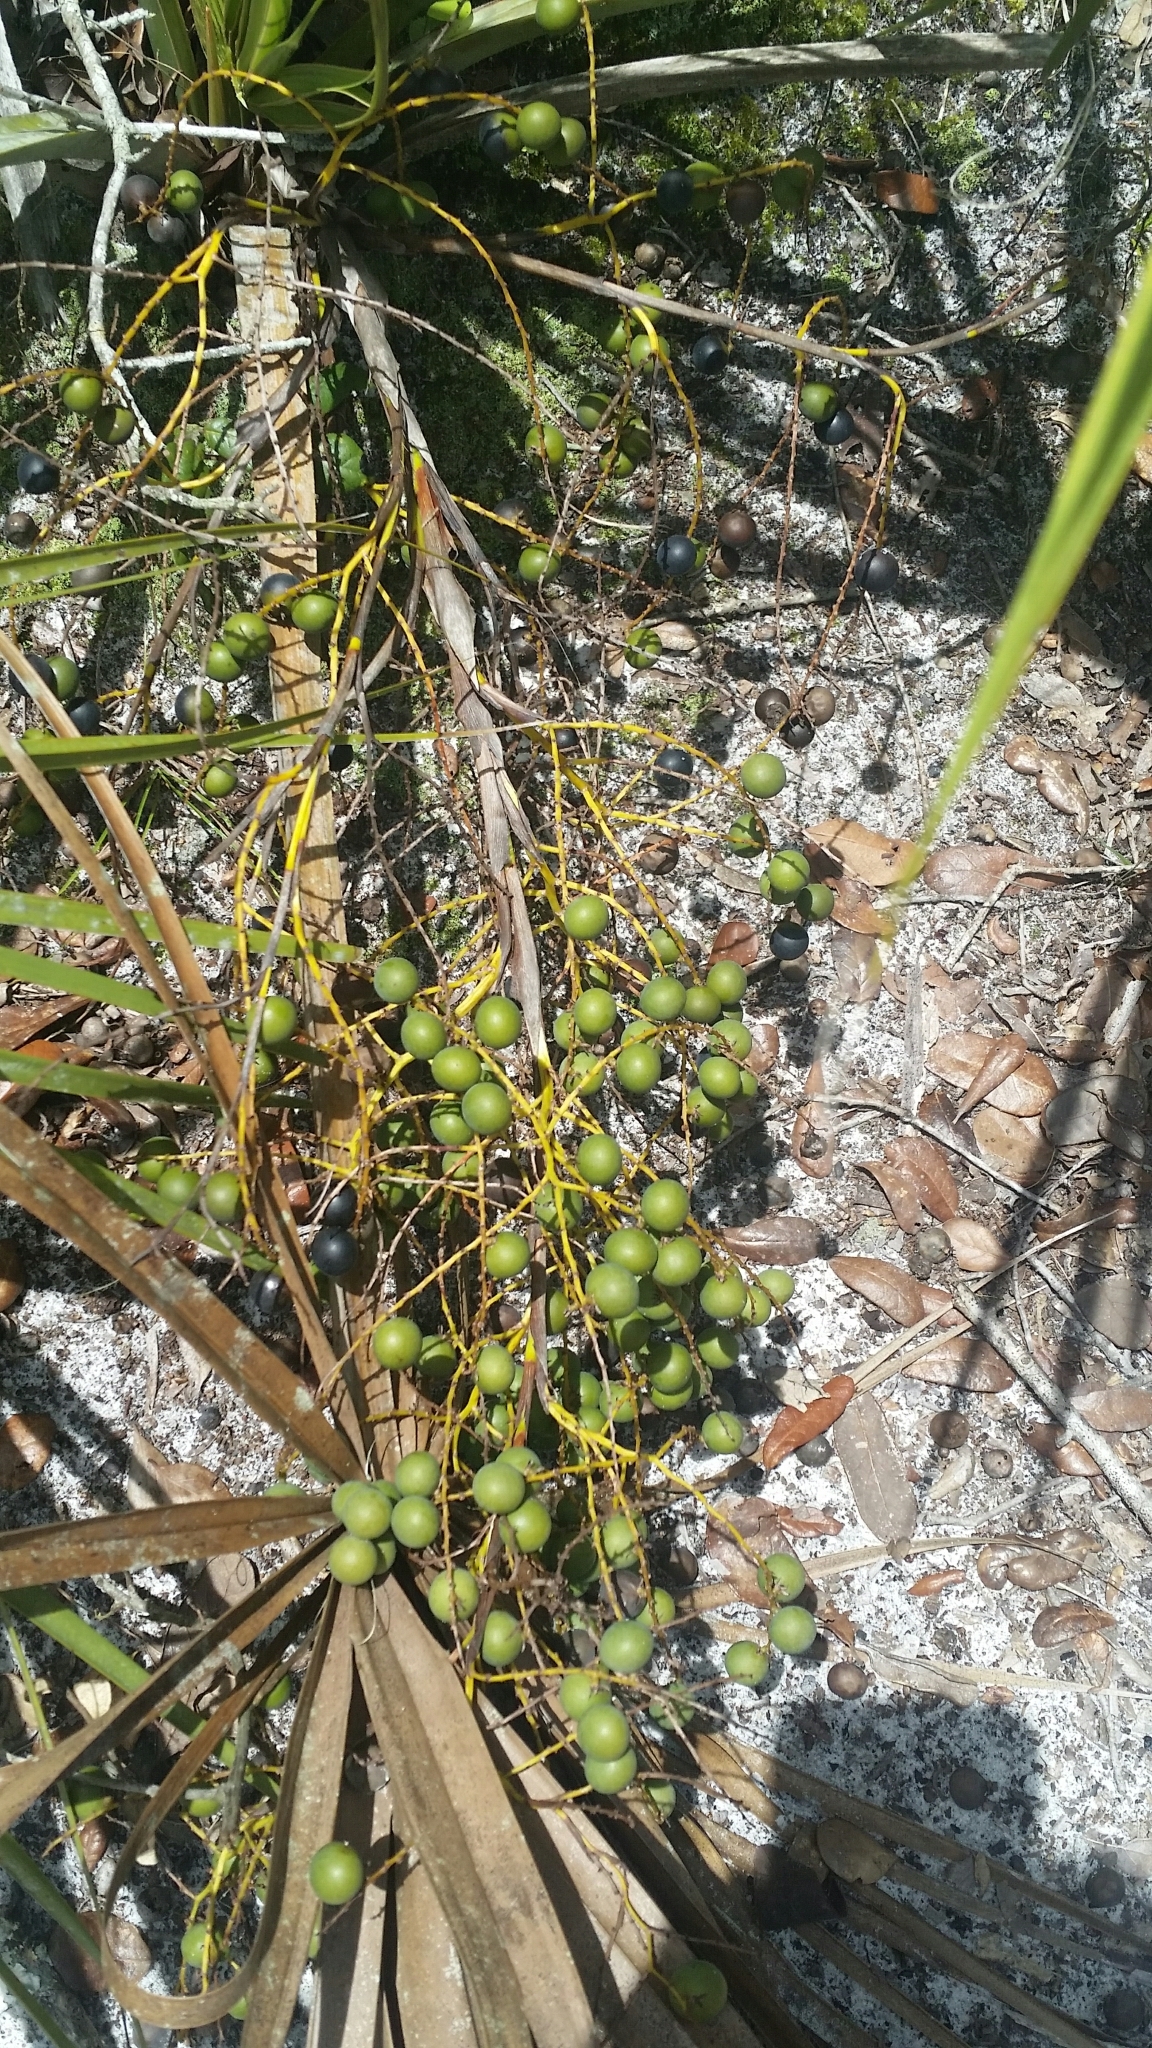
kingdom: Plantae
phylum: Tracheophyta
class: Liliopsida
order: Arecales
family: Arecaceae
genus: Sabal
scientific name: Sabal etonia
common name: Dwarf palmetto
